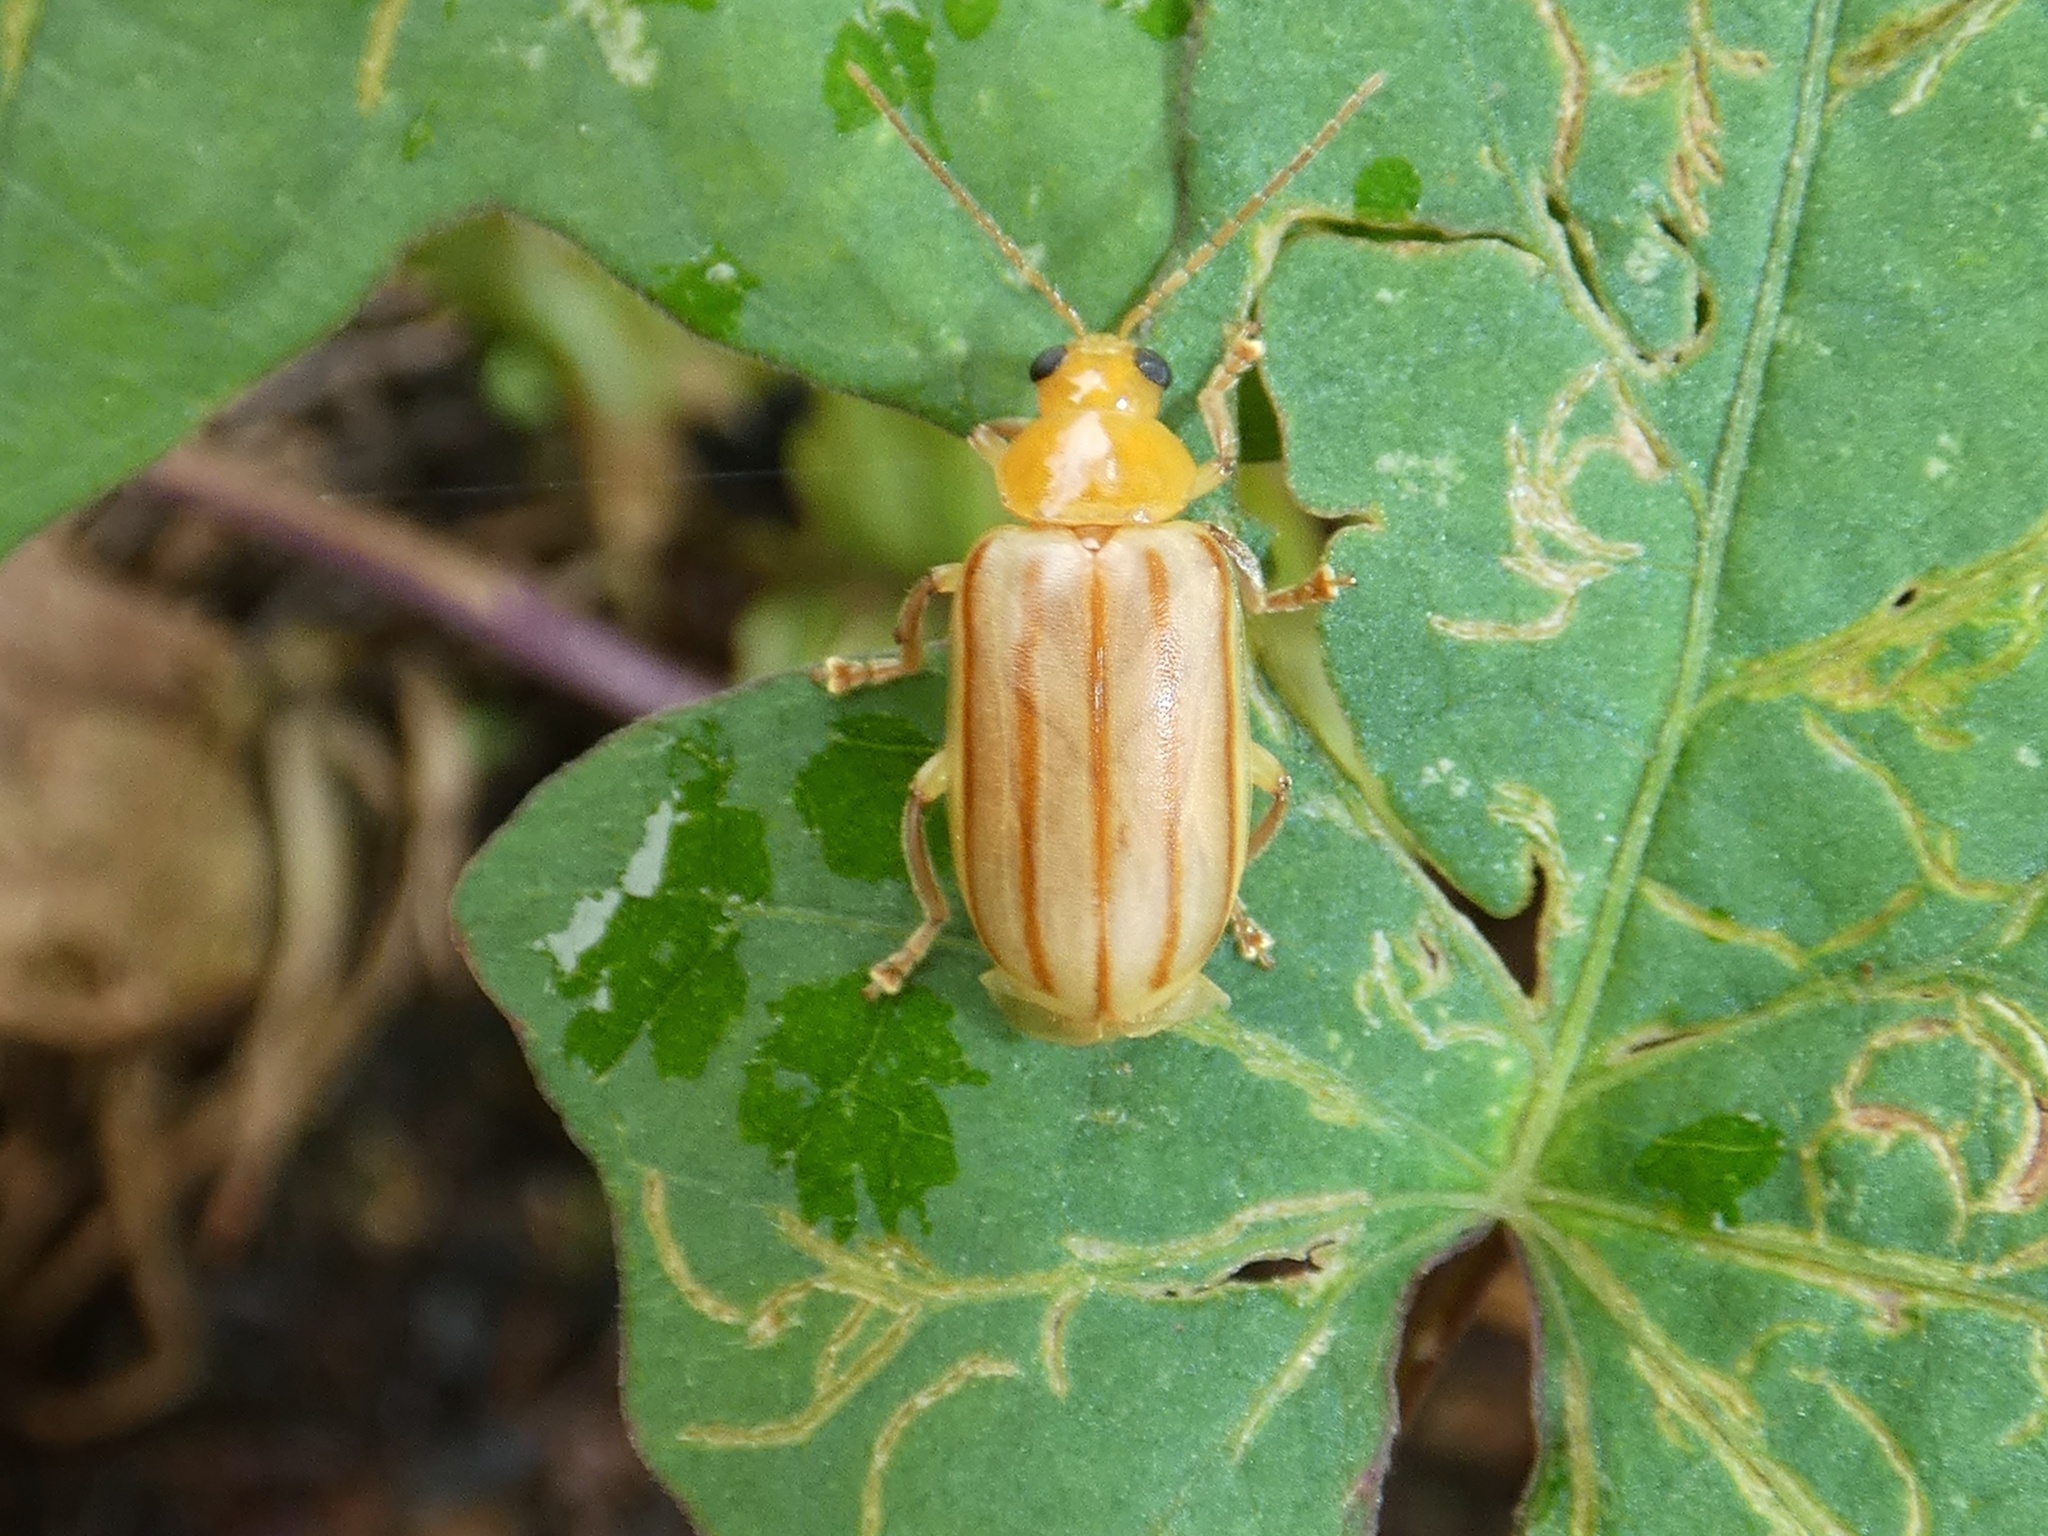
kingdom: Animalia
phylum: Arthropoda
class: Insecta
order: Coleoptera
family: Chrysomelidae
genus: Exora
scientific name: Exora encaustica
